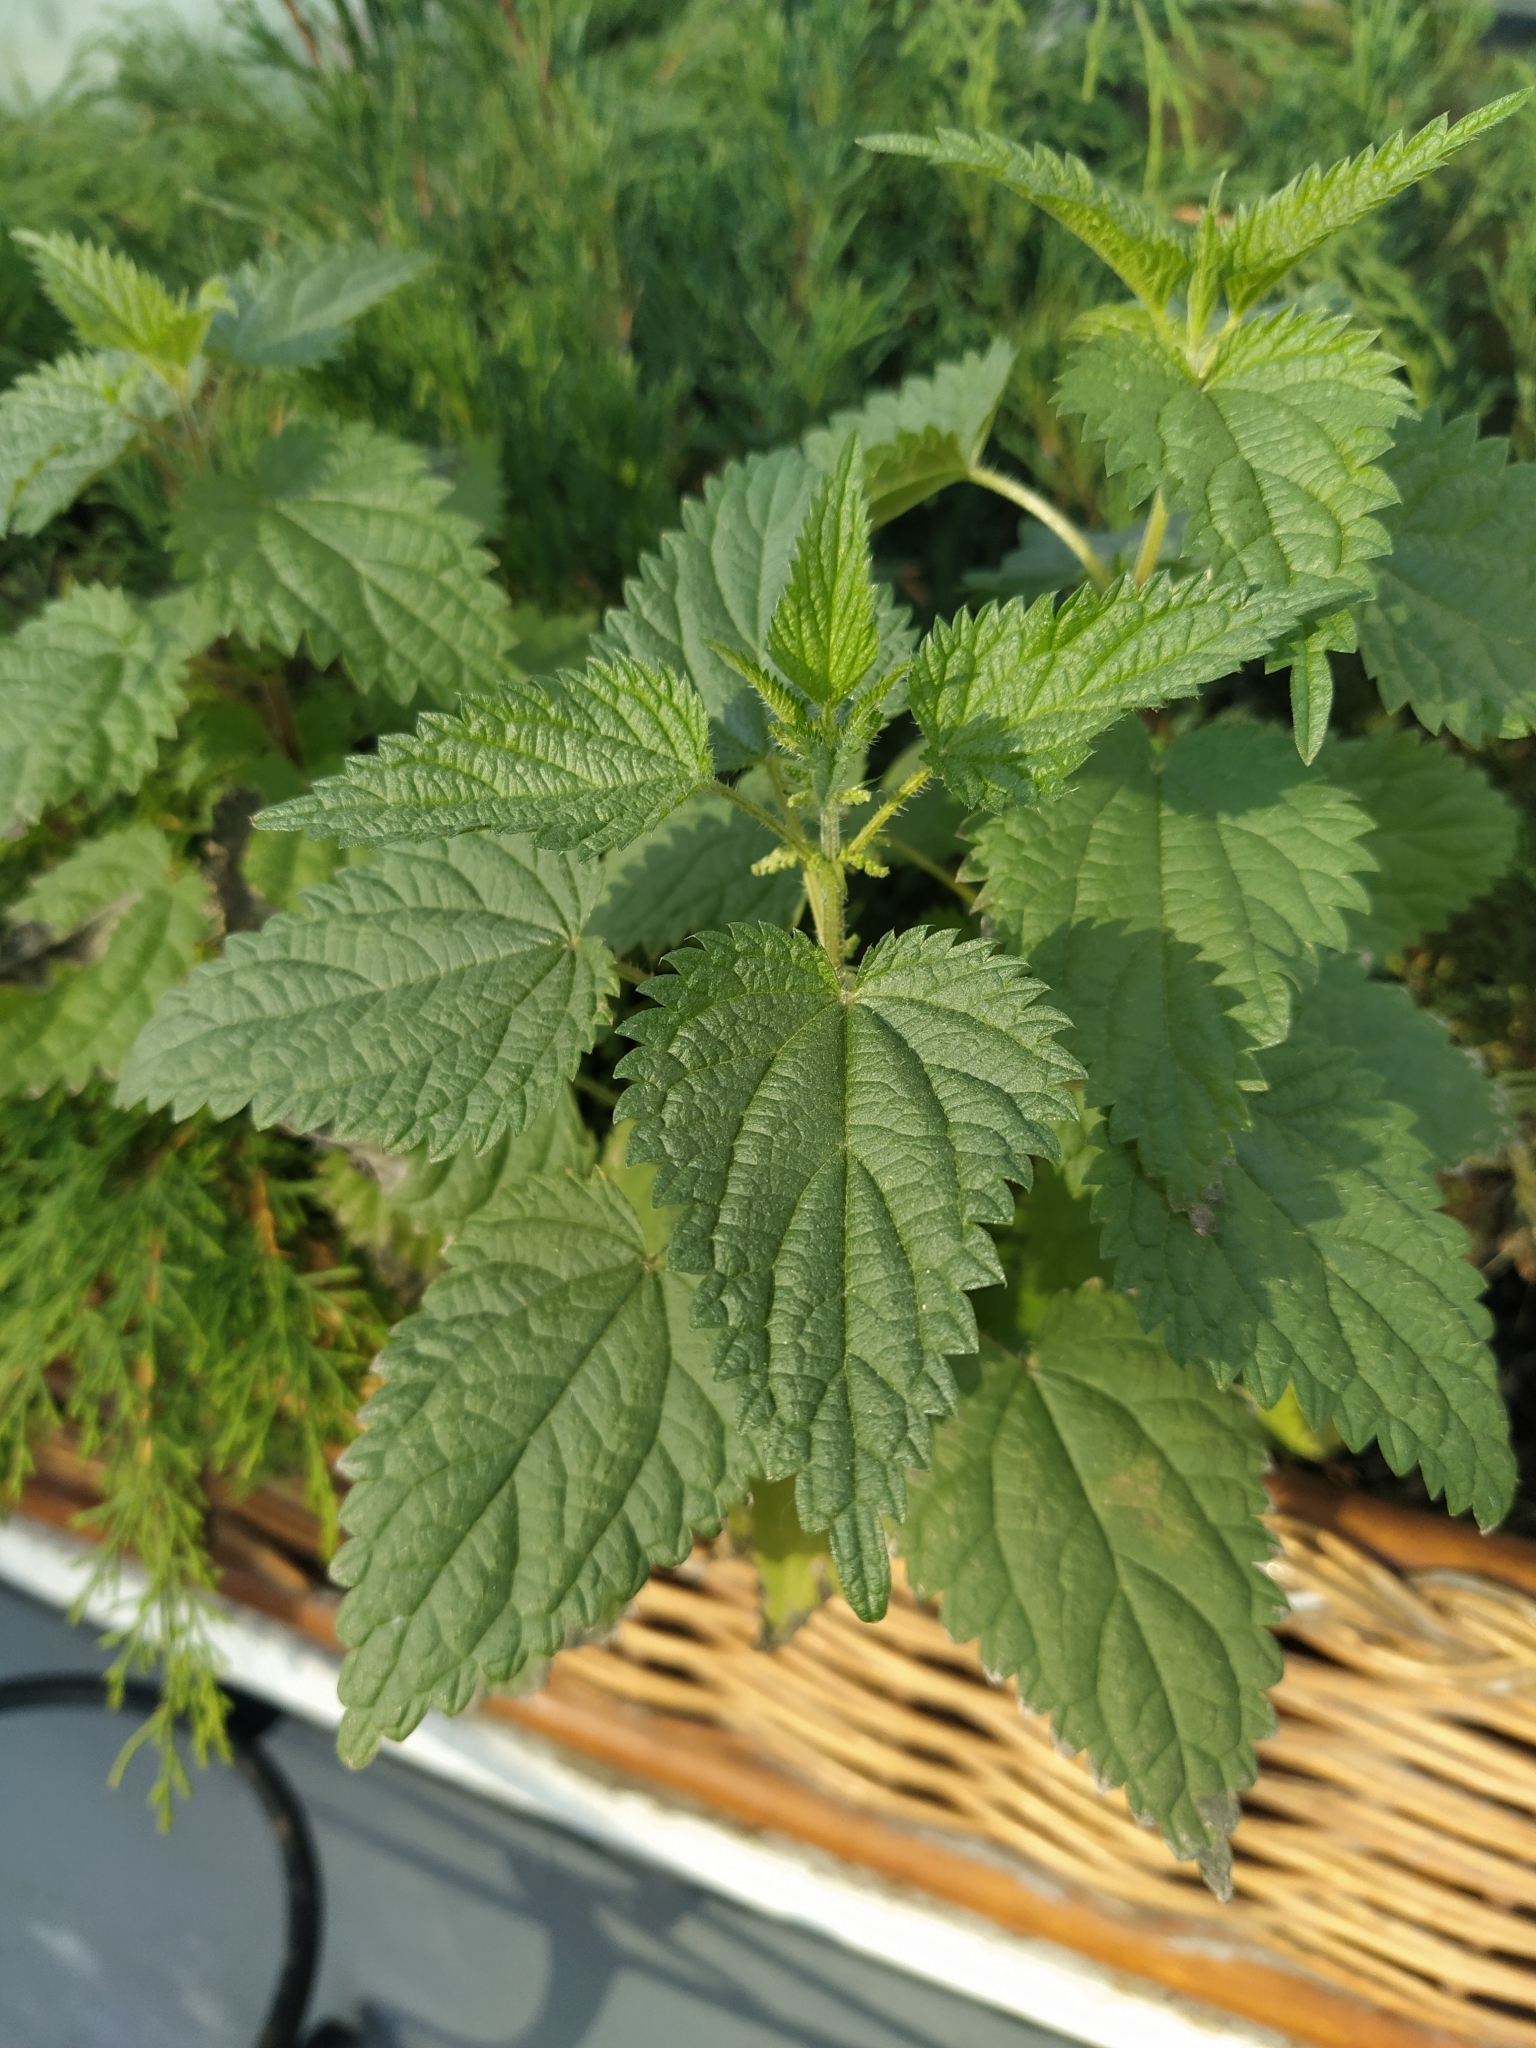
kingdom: Plantae
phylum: Tracheophyta
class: Magnoliopsida
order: Rosales
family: Urticaceae
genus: Urtica
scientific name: Urtica dioica
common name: Common nettle
